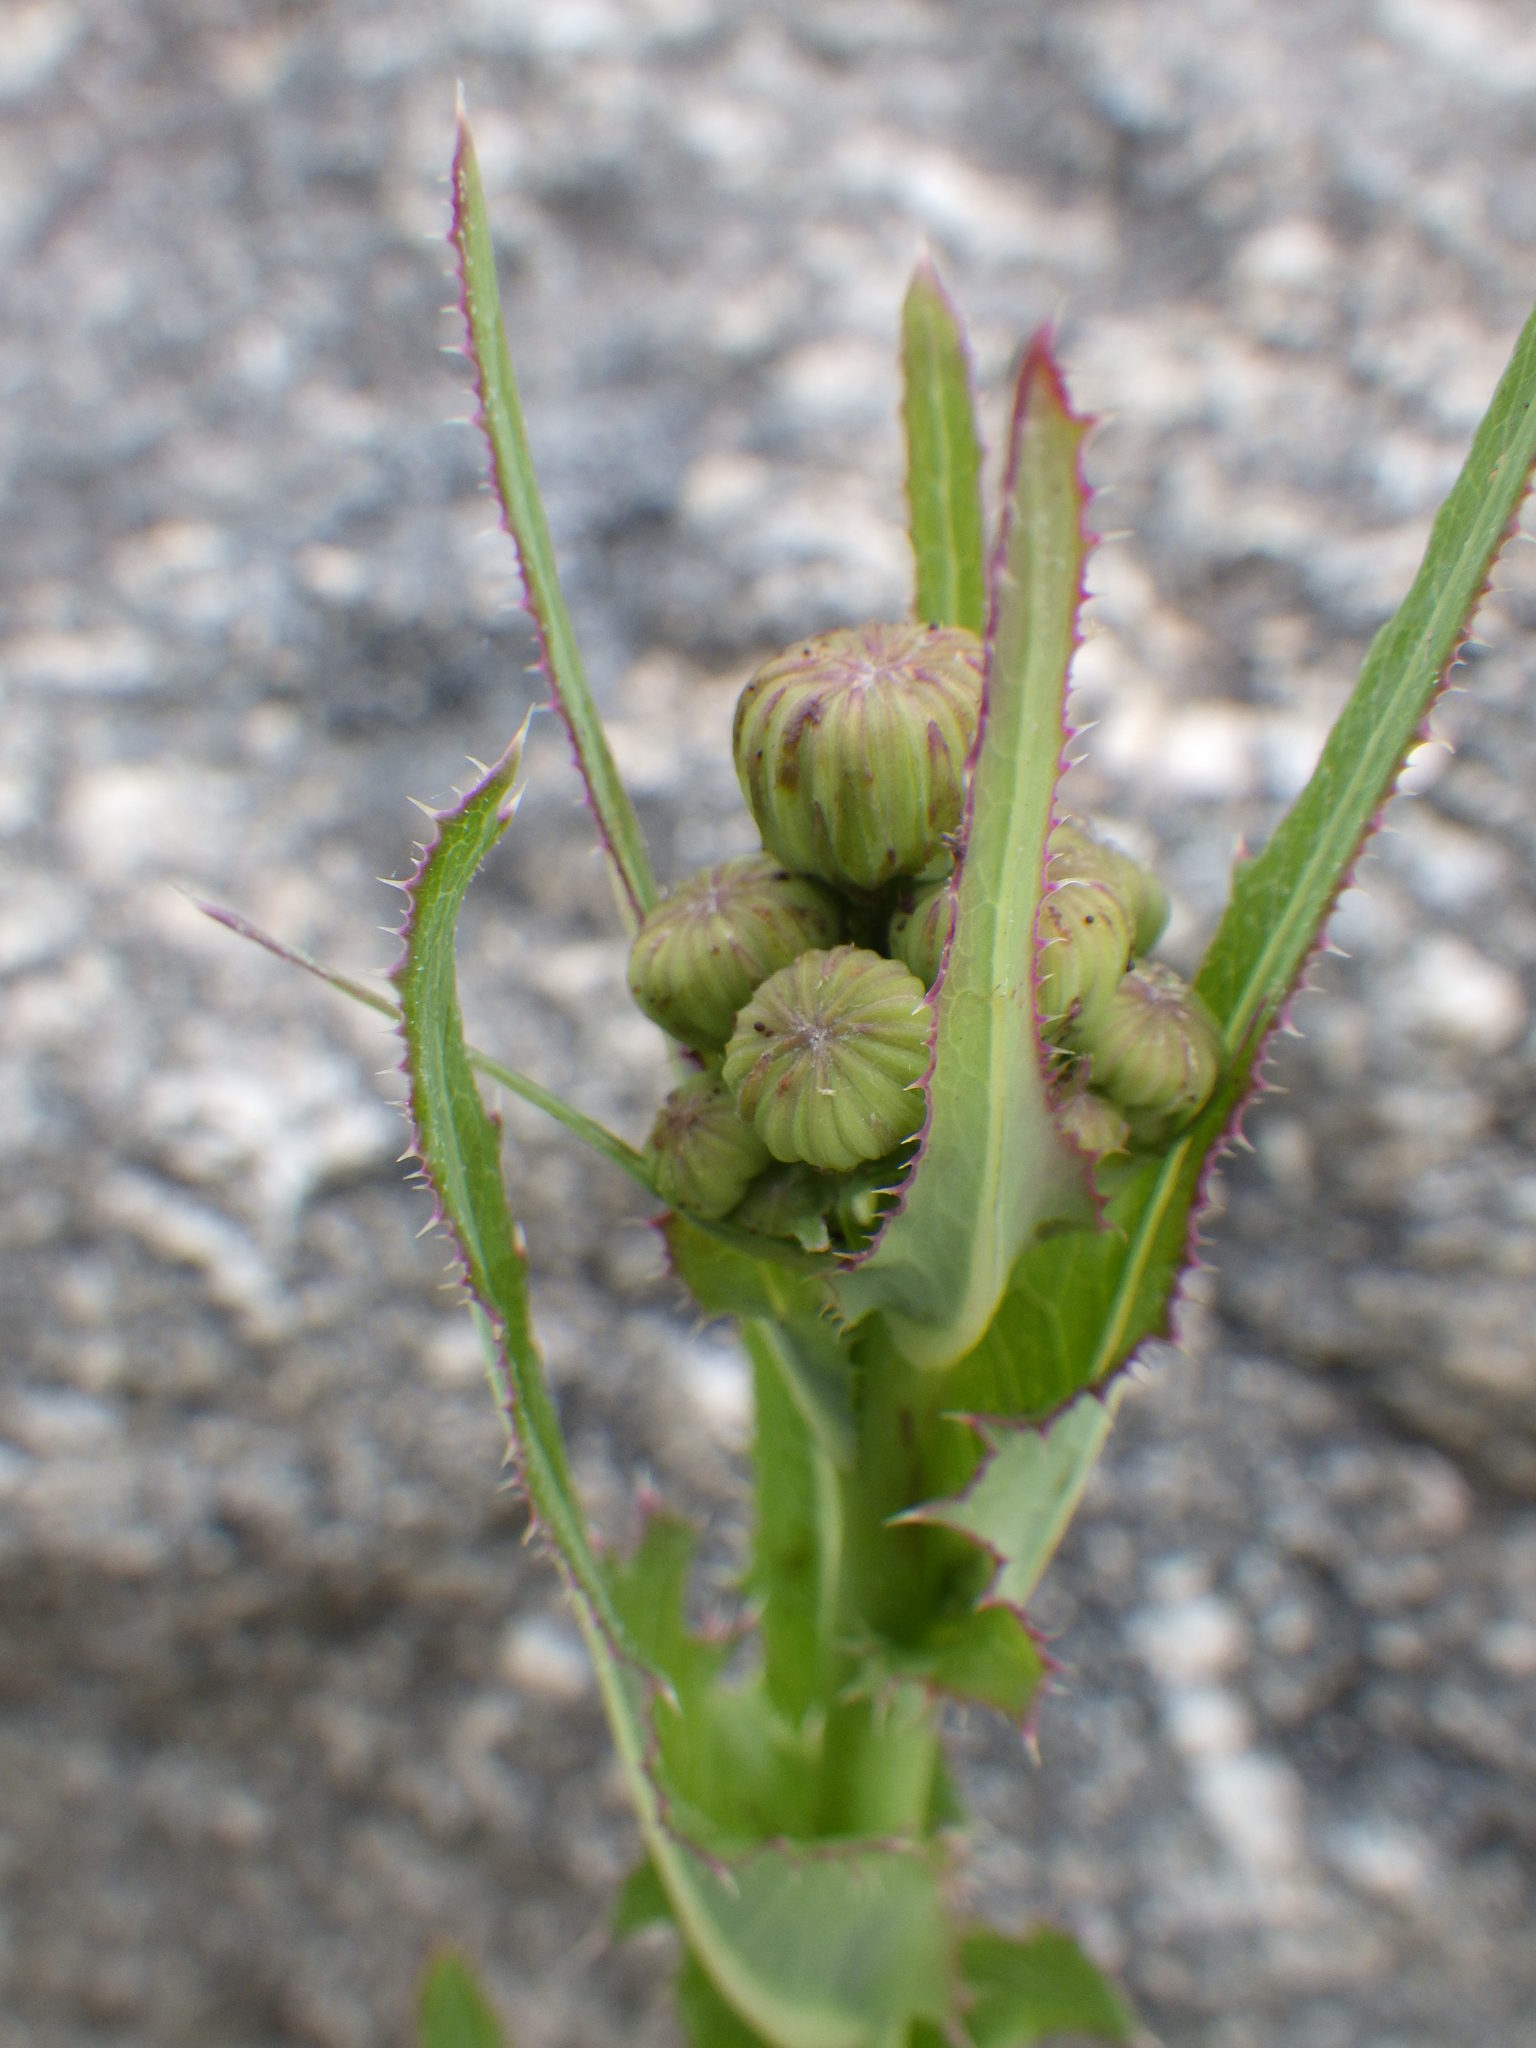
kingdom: Plantae
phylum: Tracheophyta
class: Magnoliopsida
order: Asterales
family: Asteraceae
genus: Sonchus
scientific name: Sonchus arvensis
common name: Perennial sow-thistle
